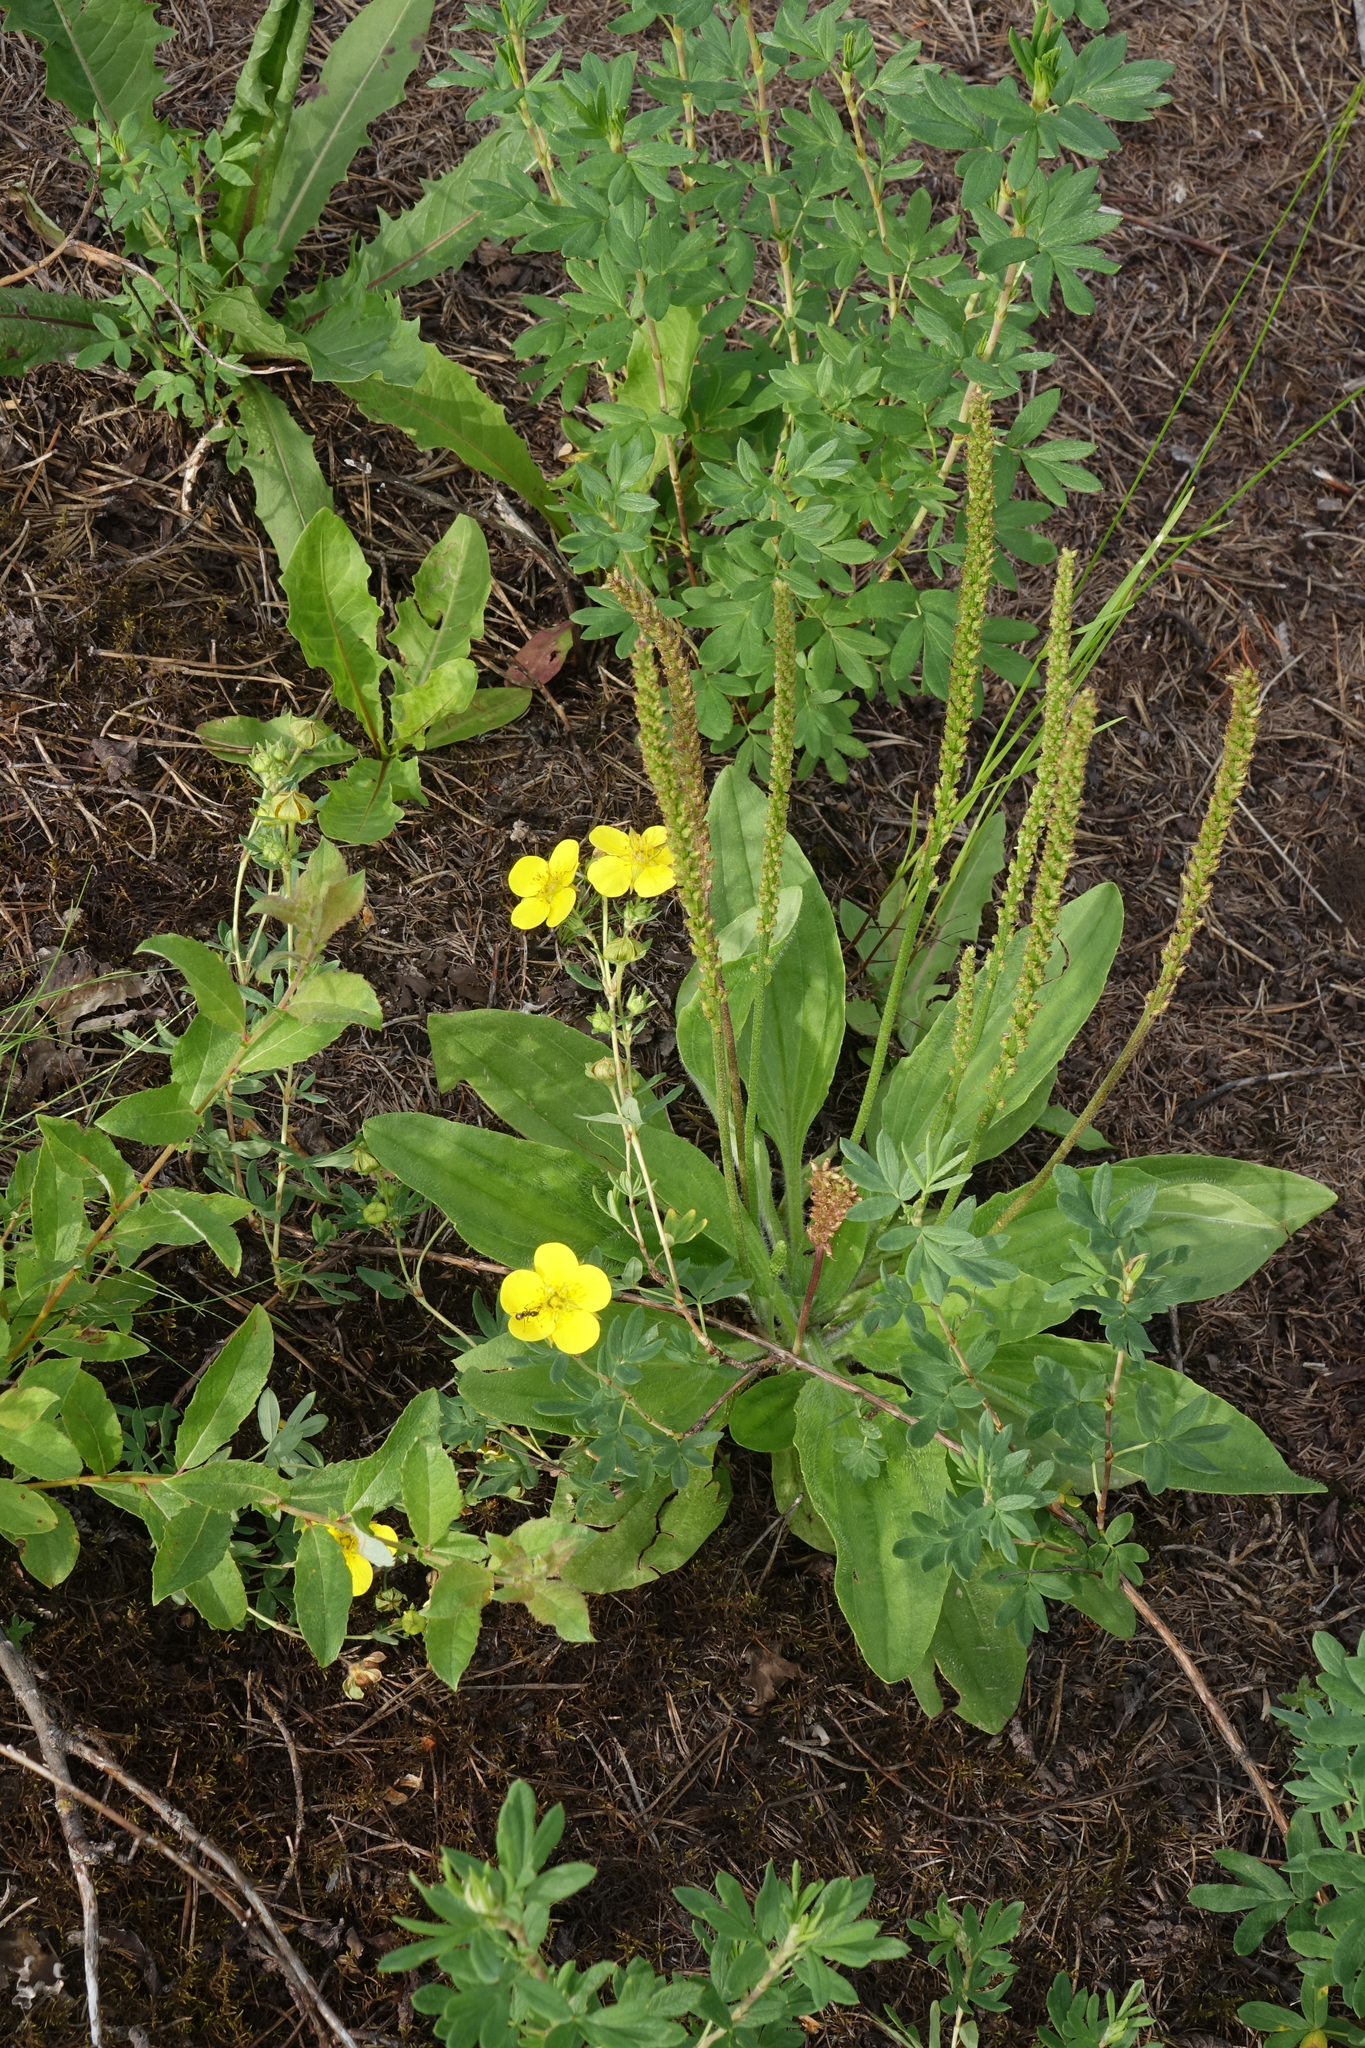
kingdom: Plantae
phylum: Tracheophyta
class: Magnoliopsida
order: Rosales
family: Rosaceae
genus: Dasiphora
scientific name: Dasiphora fruticosa
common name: Shrubby cinquefoil
